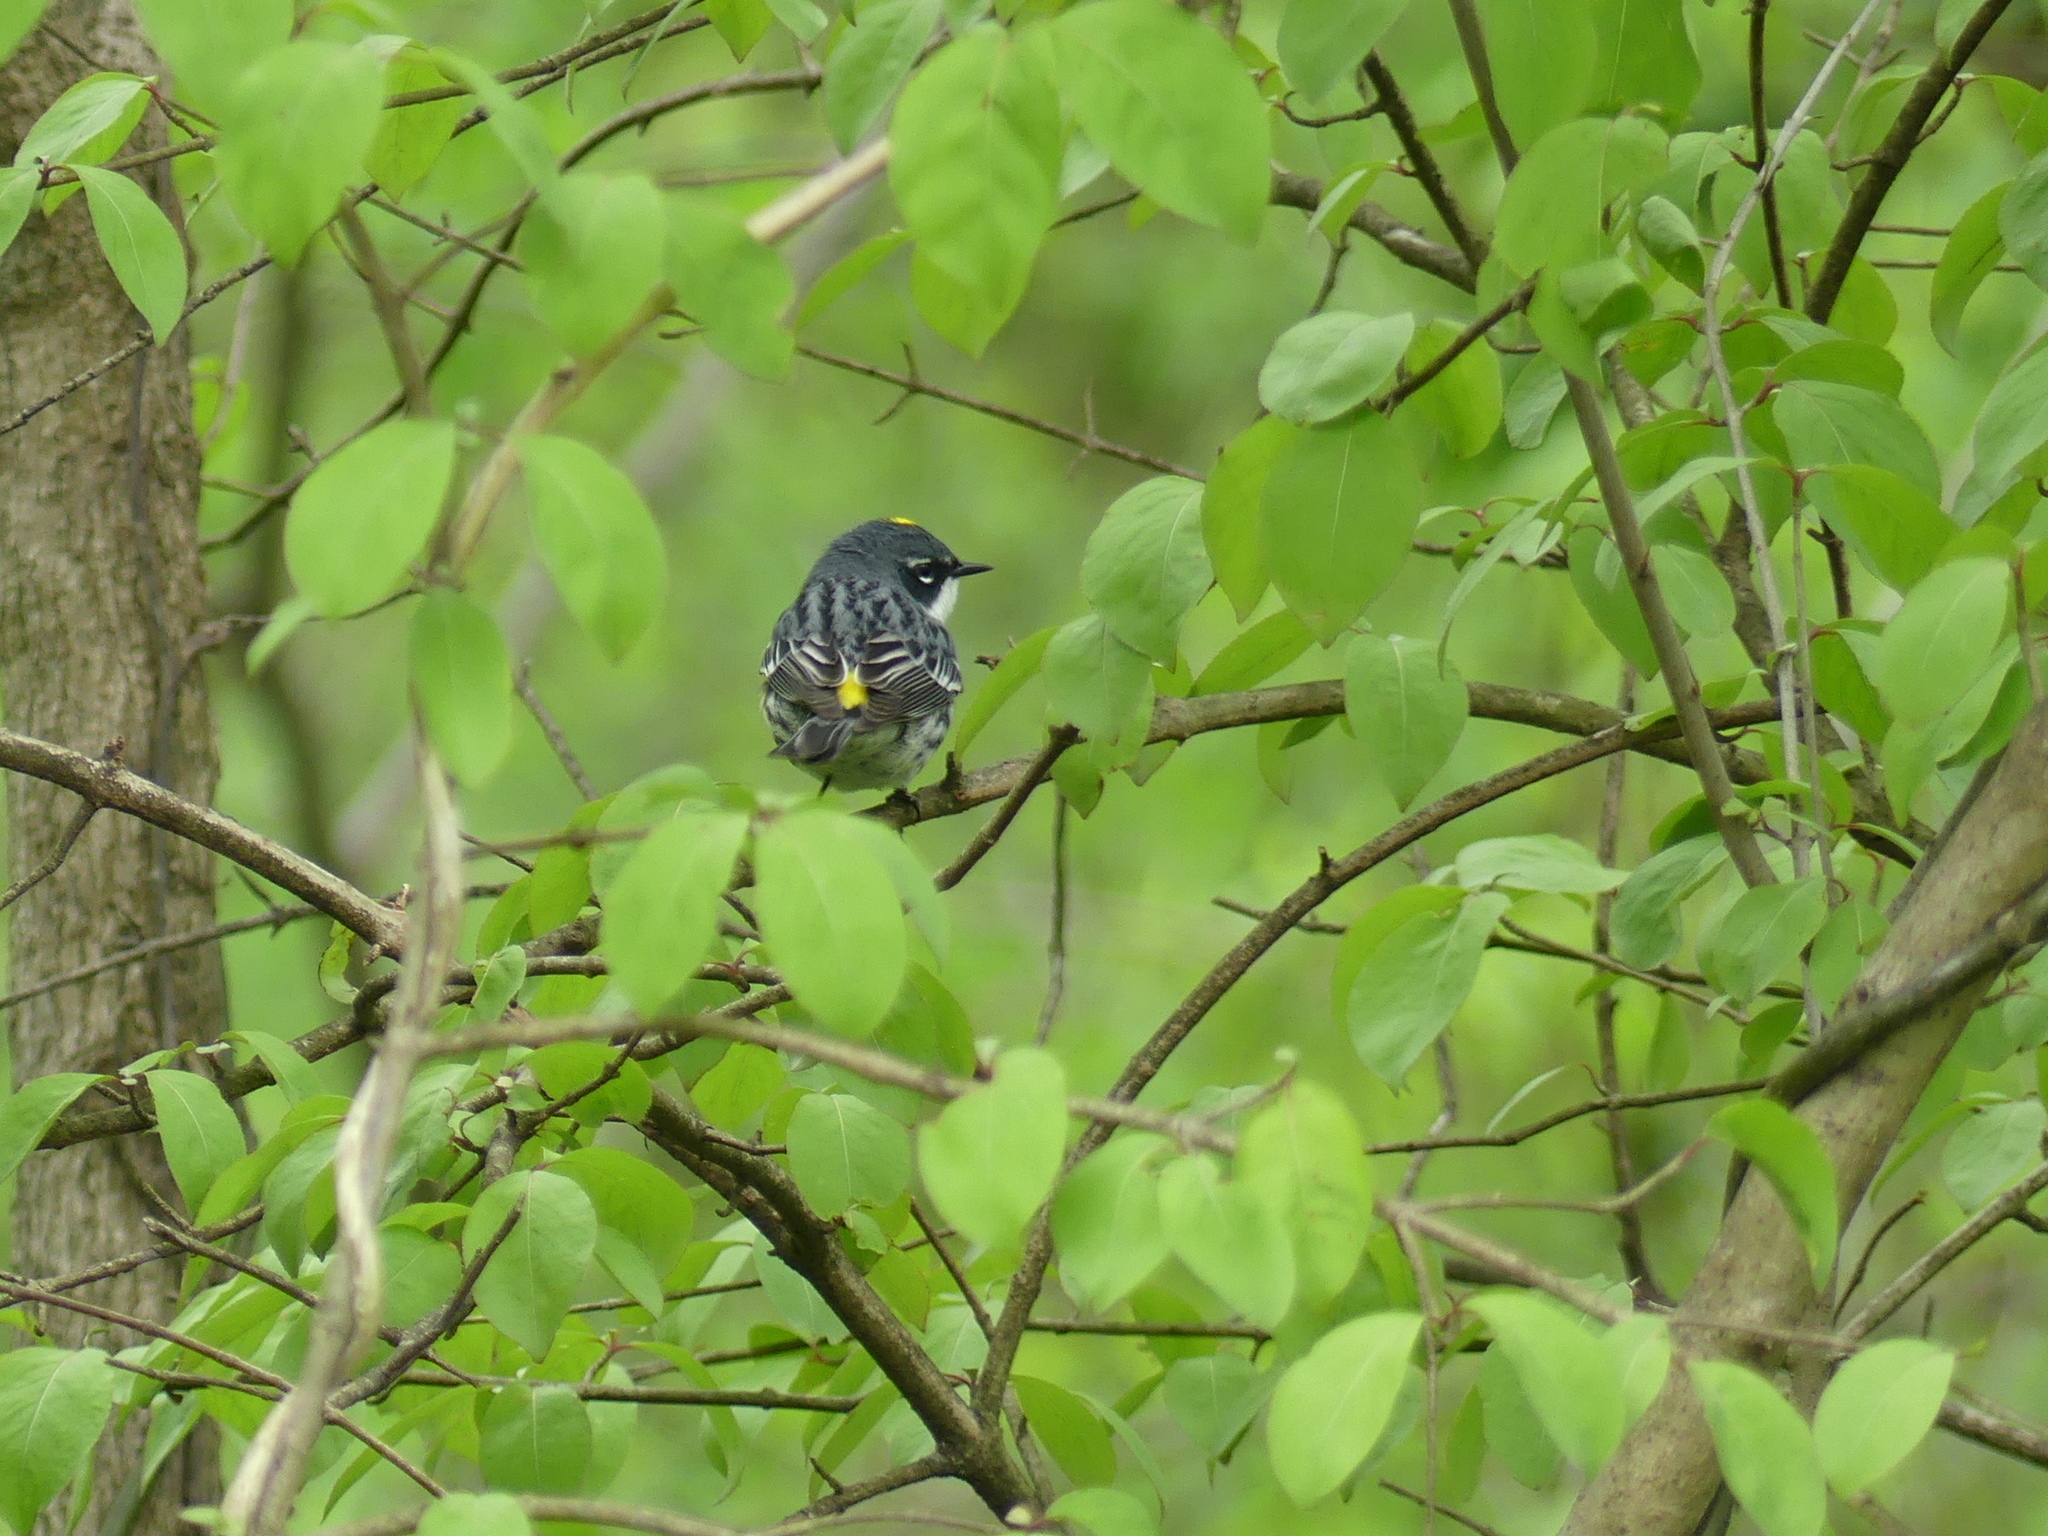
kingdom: Animalia
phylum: Chordata
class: Aves
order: Passeriformes
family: Parulidae
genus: Setophaga
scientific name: Setophaga coronata
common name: Myrtle warbler
